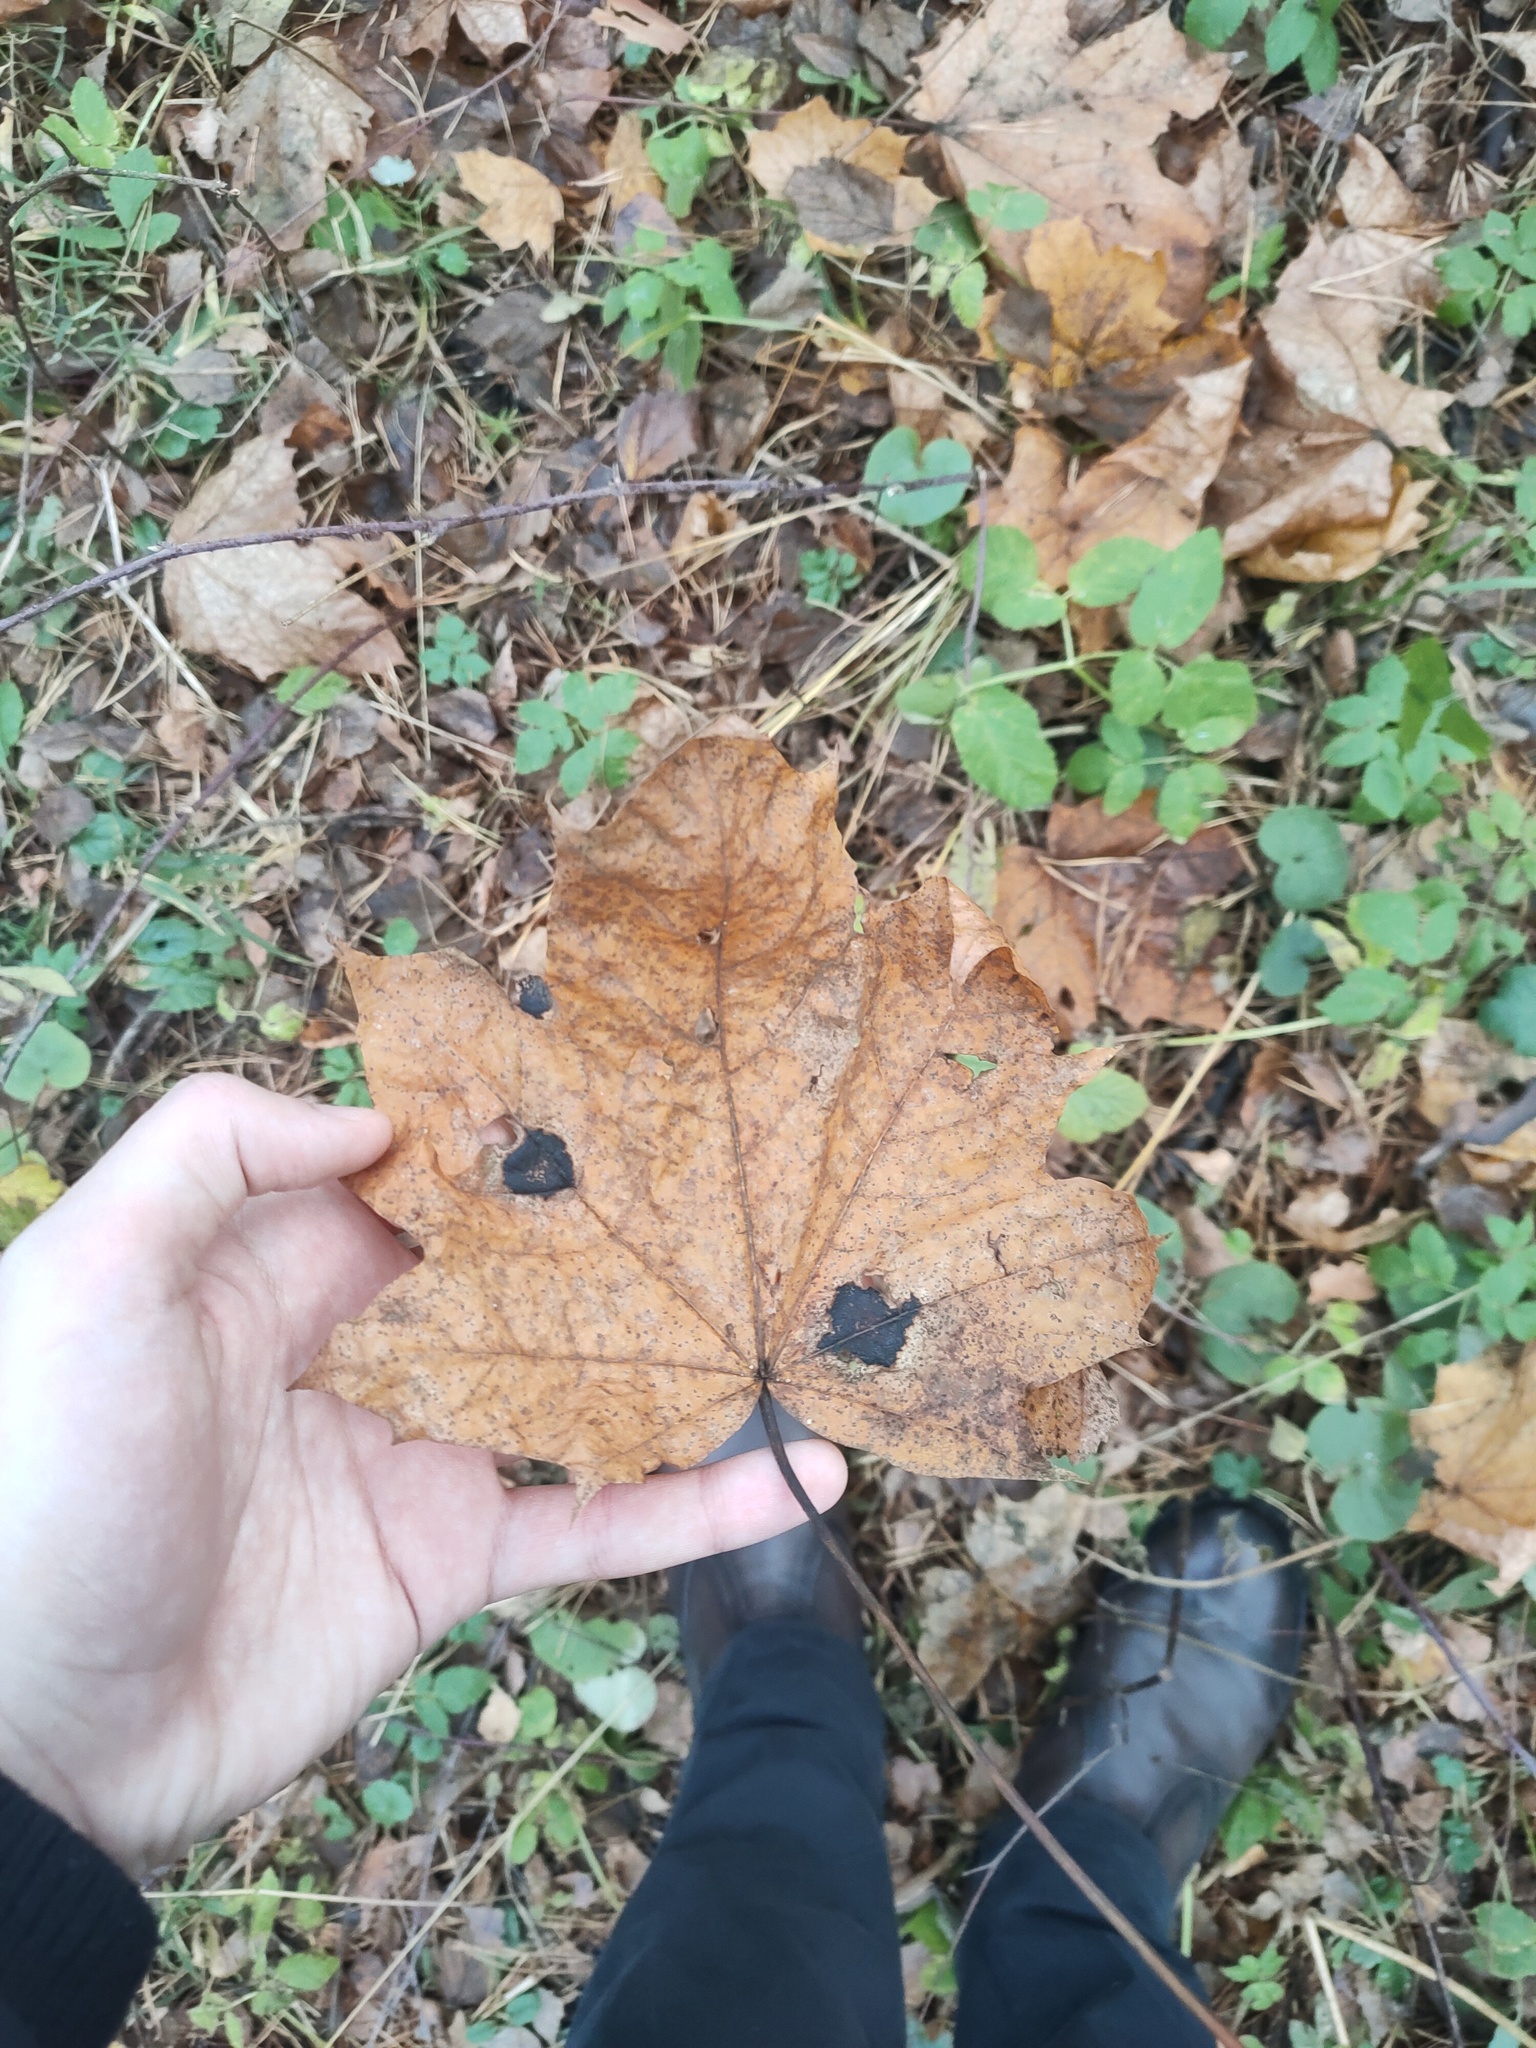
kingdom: Plantae
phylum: Tracheophyta
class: Magnoliopsida
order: Sapindales
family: Sapindaceae
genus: Acer
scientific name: Acer platanoides
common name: Norway maple
